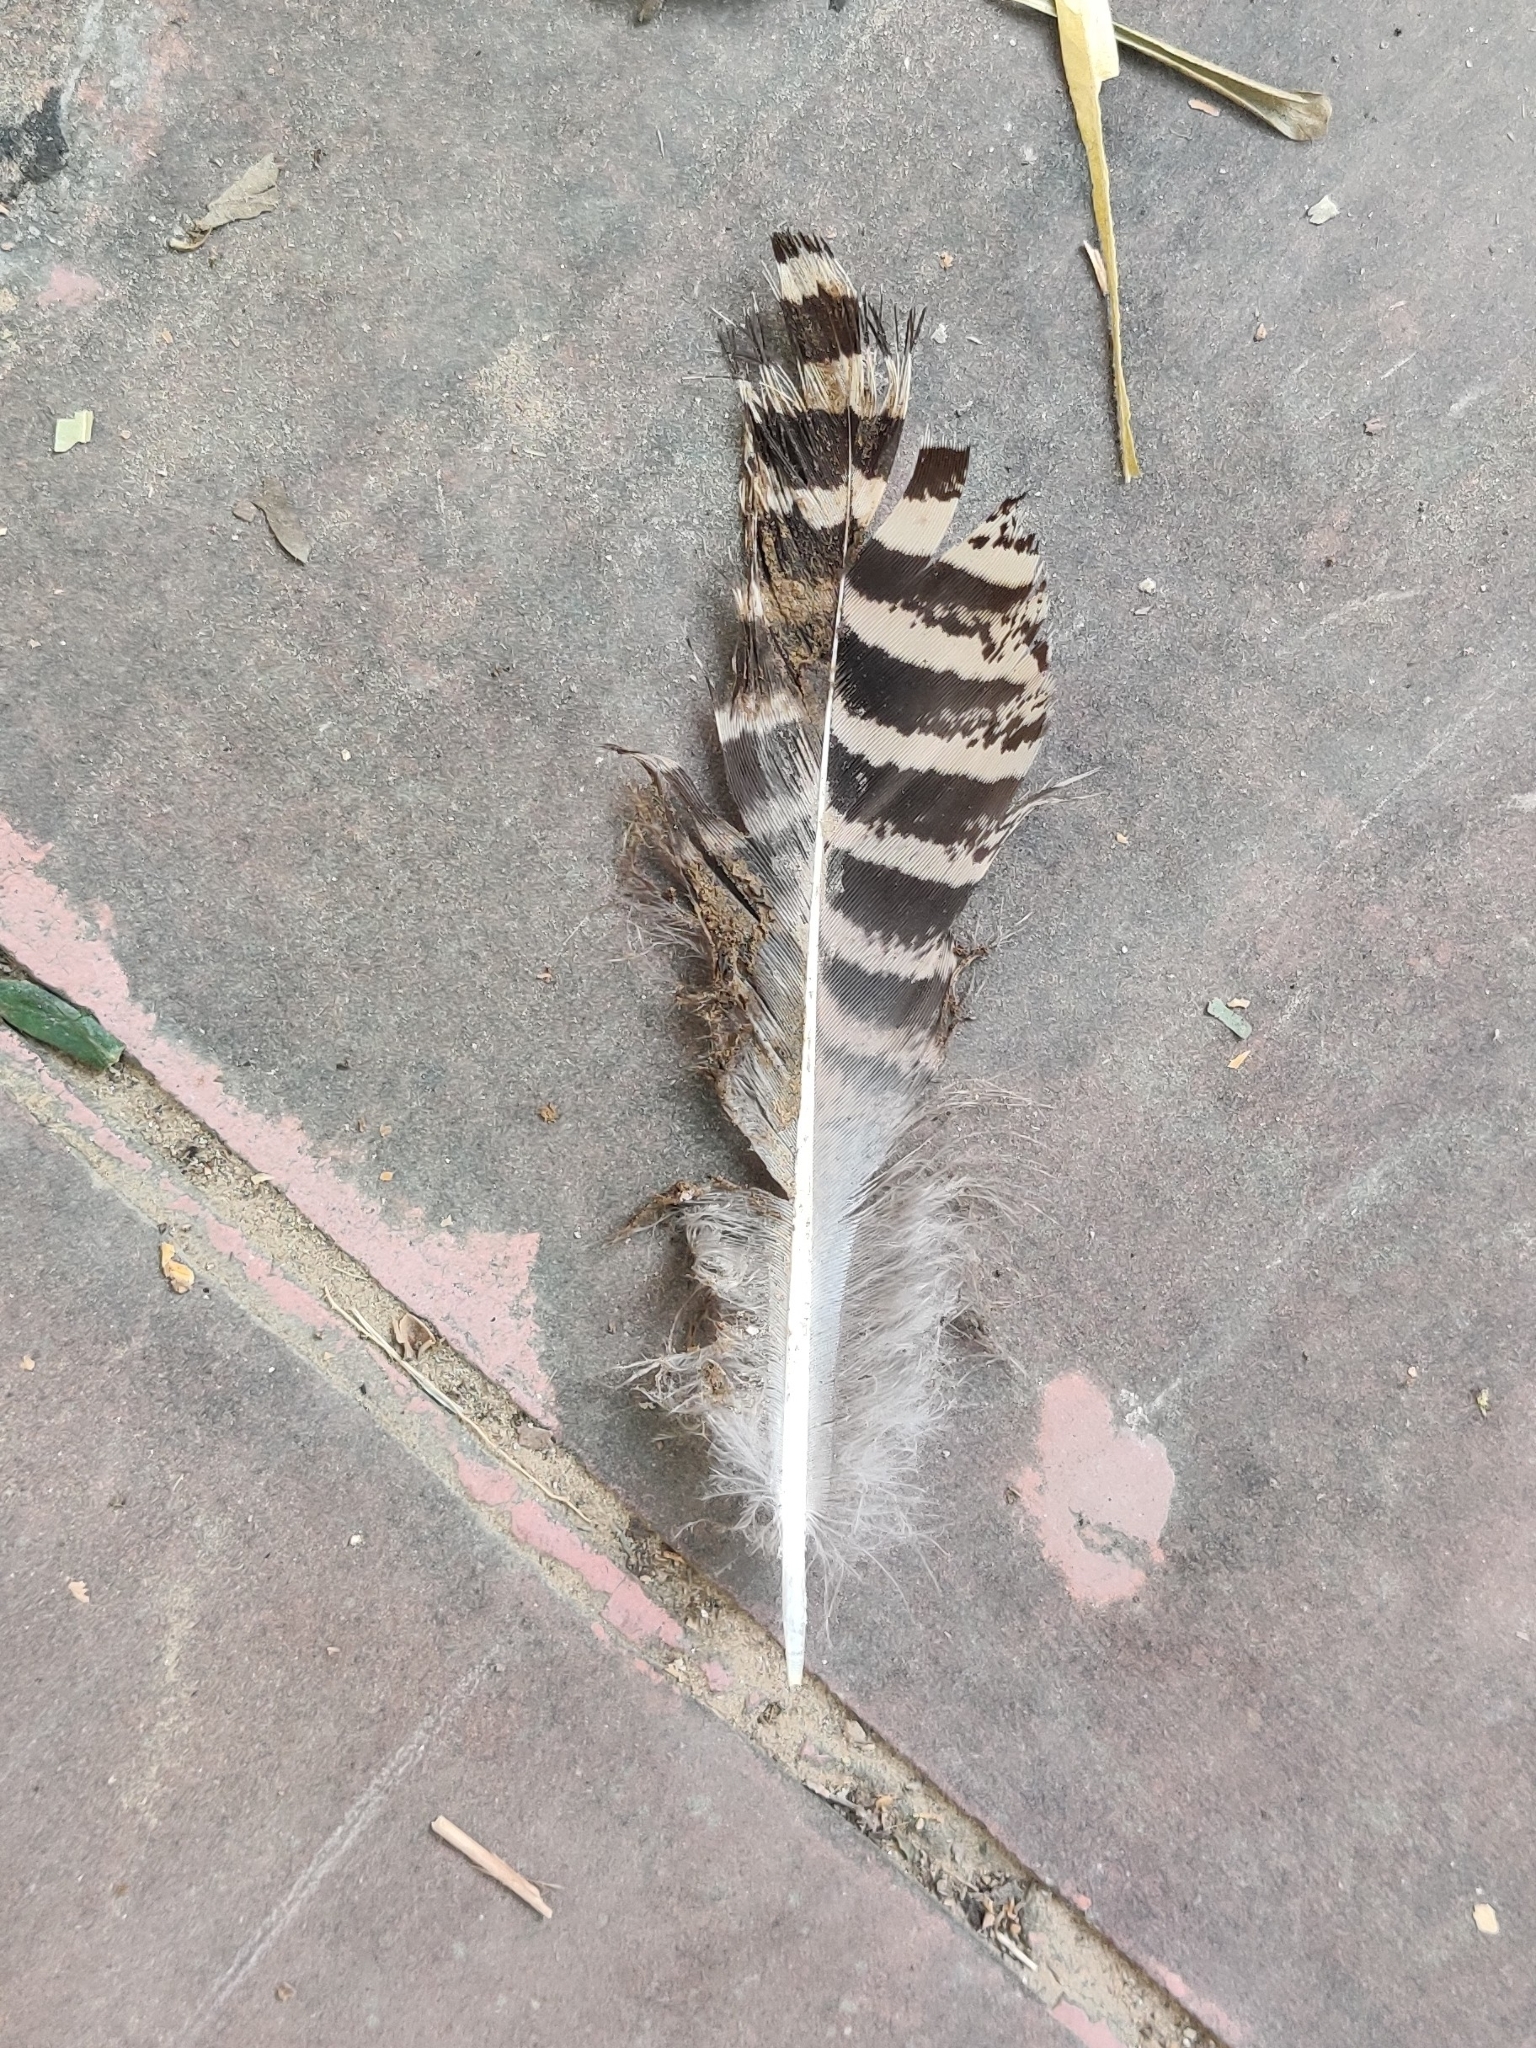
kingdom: Animalia
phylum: Chordata
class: Aves
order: Galliformes
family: Phasianidae
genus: Pavo
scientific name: Pavo cristatus
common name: Indian peafowl
